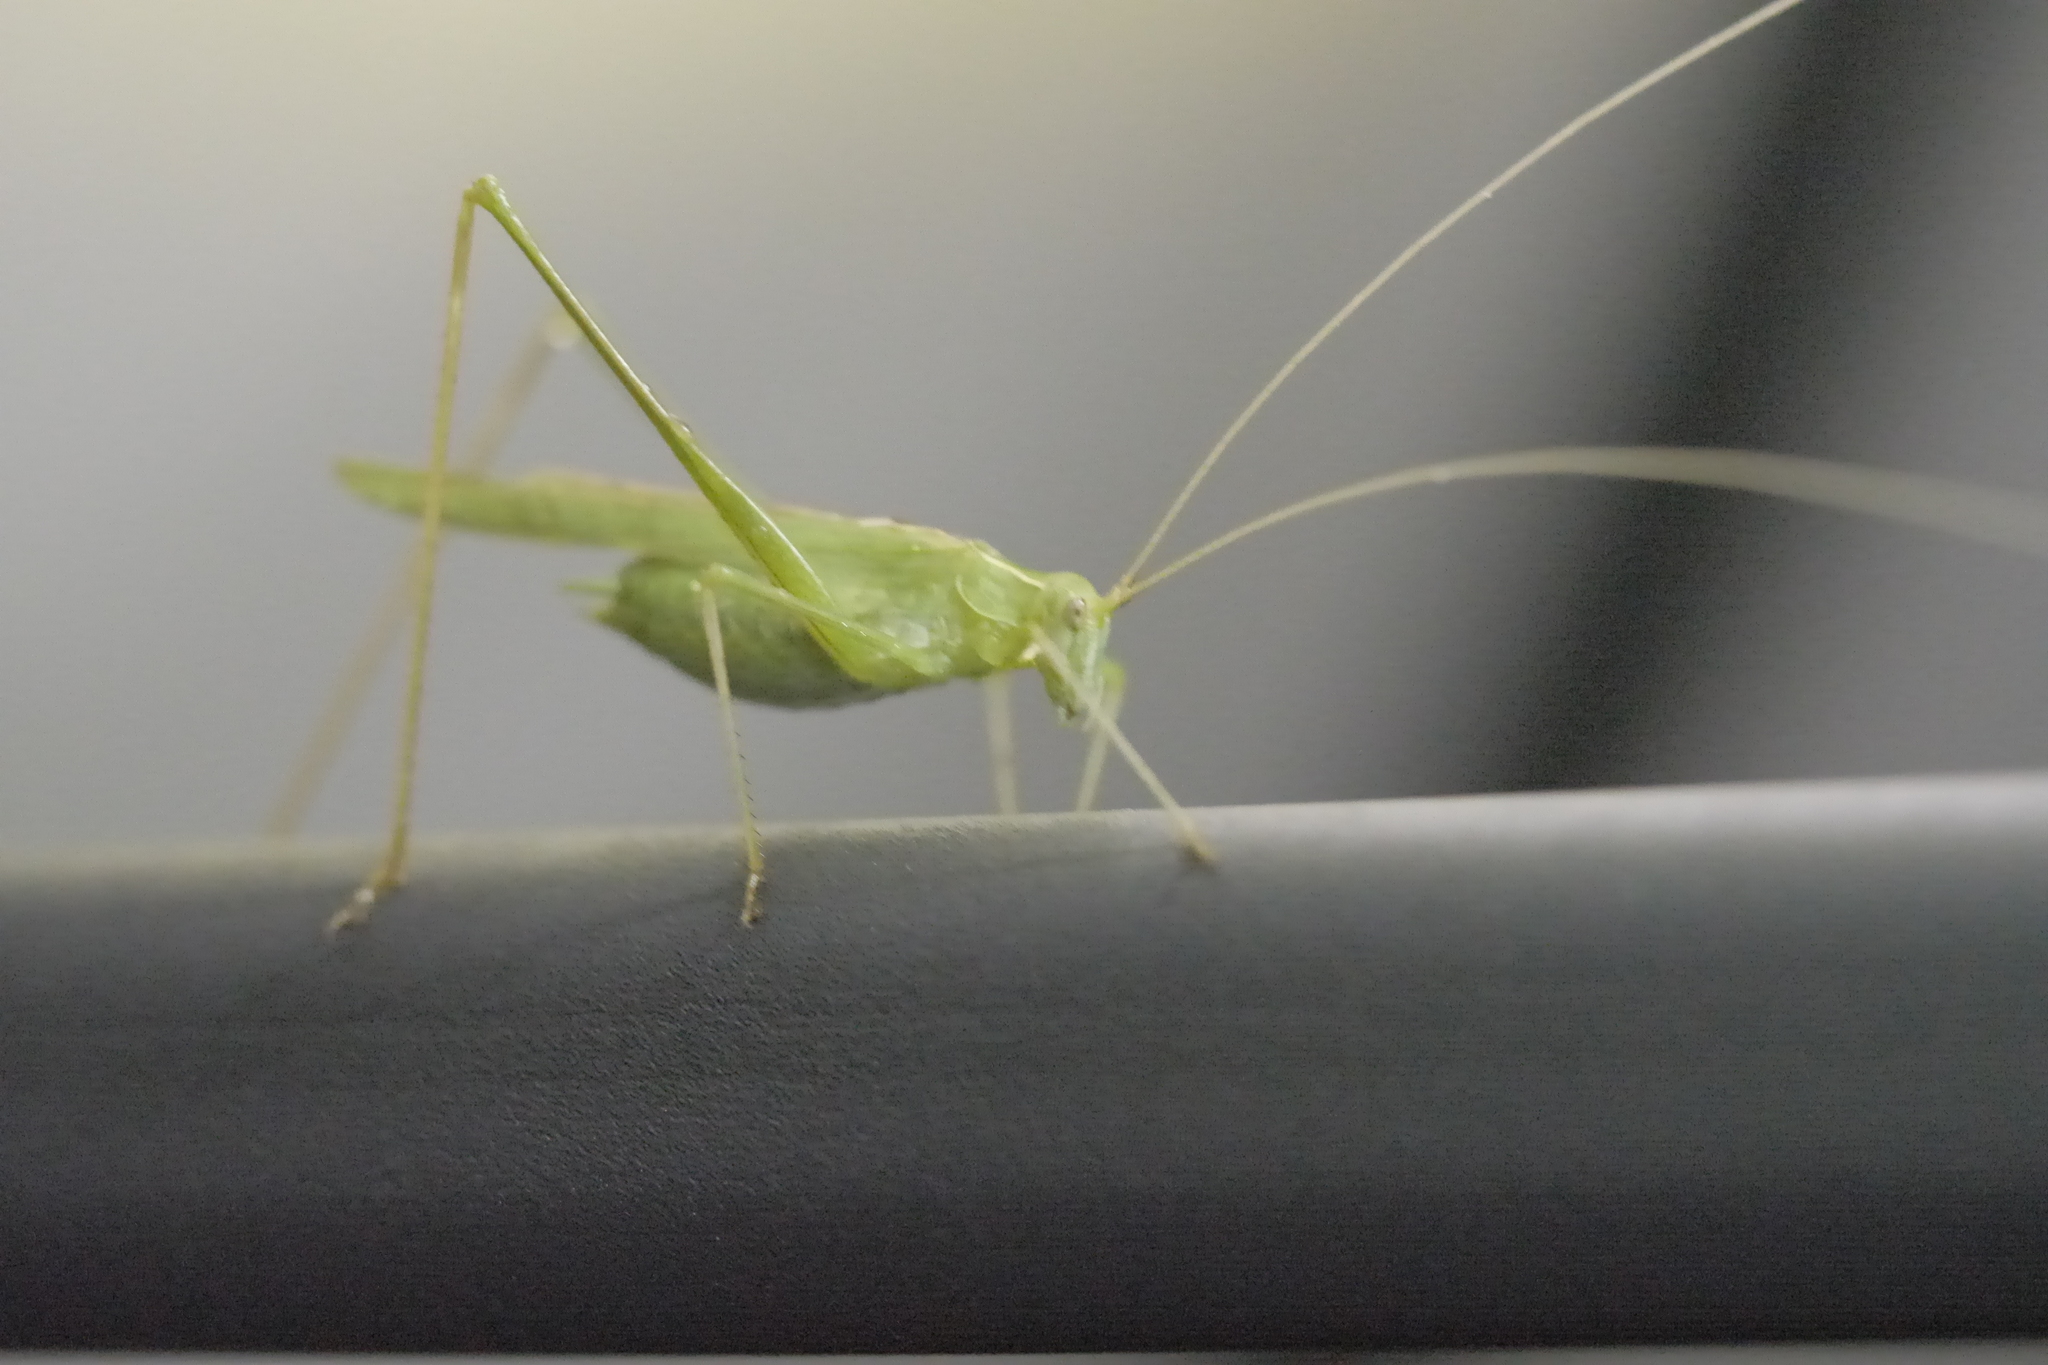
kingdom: Animalia
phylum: Arthropoda
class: Insecta
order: Orthoptera
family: Tettigoniidae
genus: Tylopsis
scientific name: Tylopsis lilifolia
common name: Lily bush-cricket
